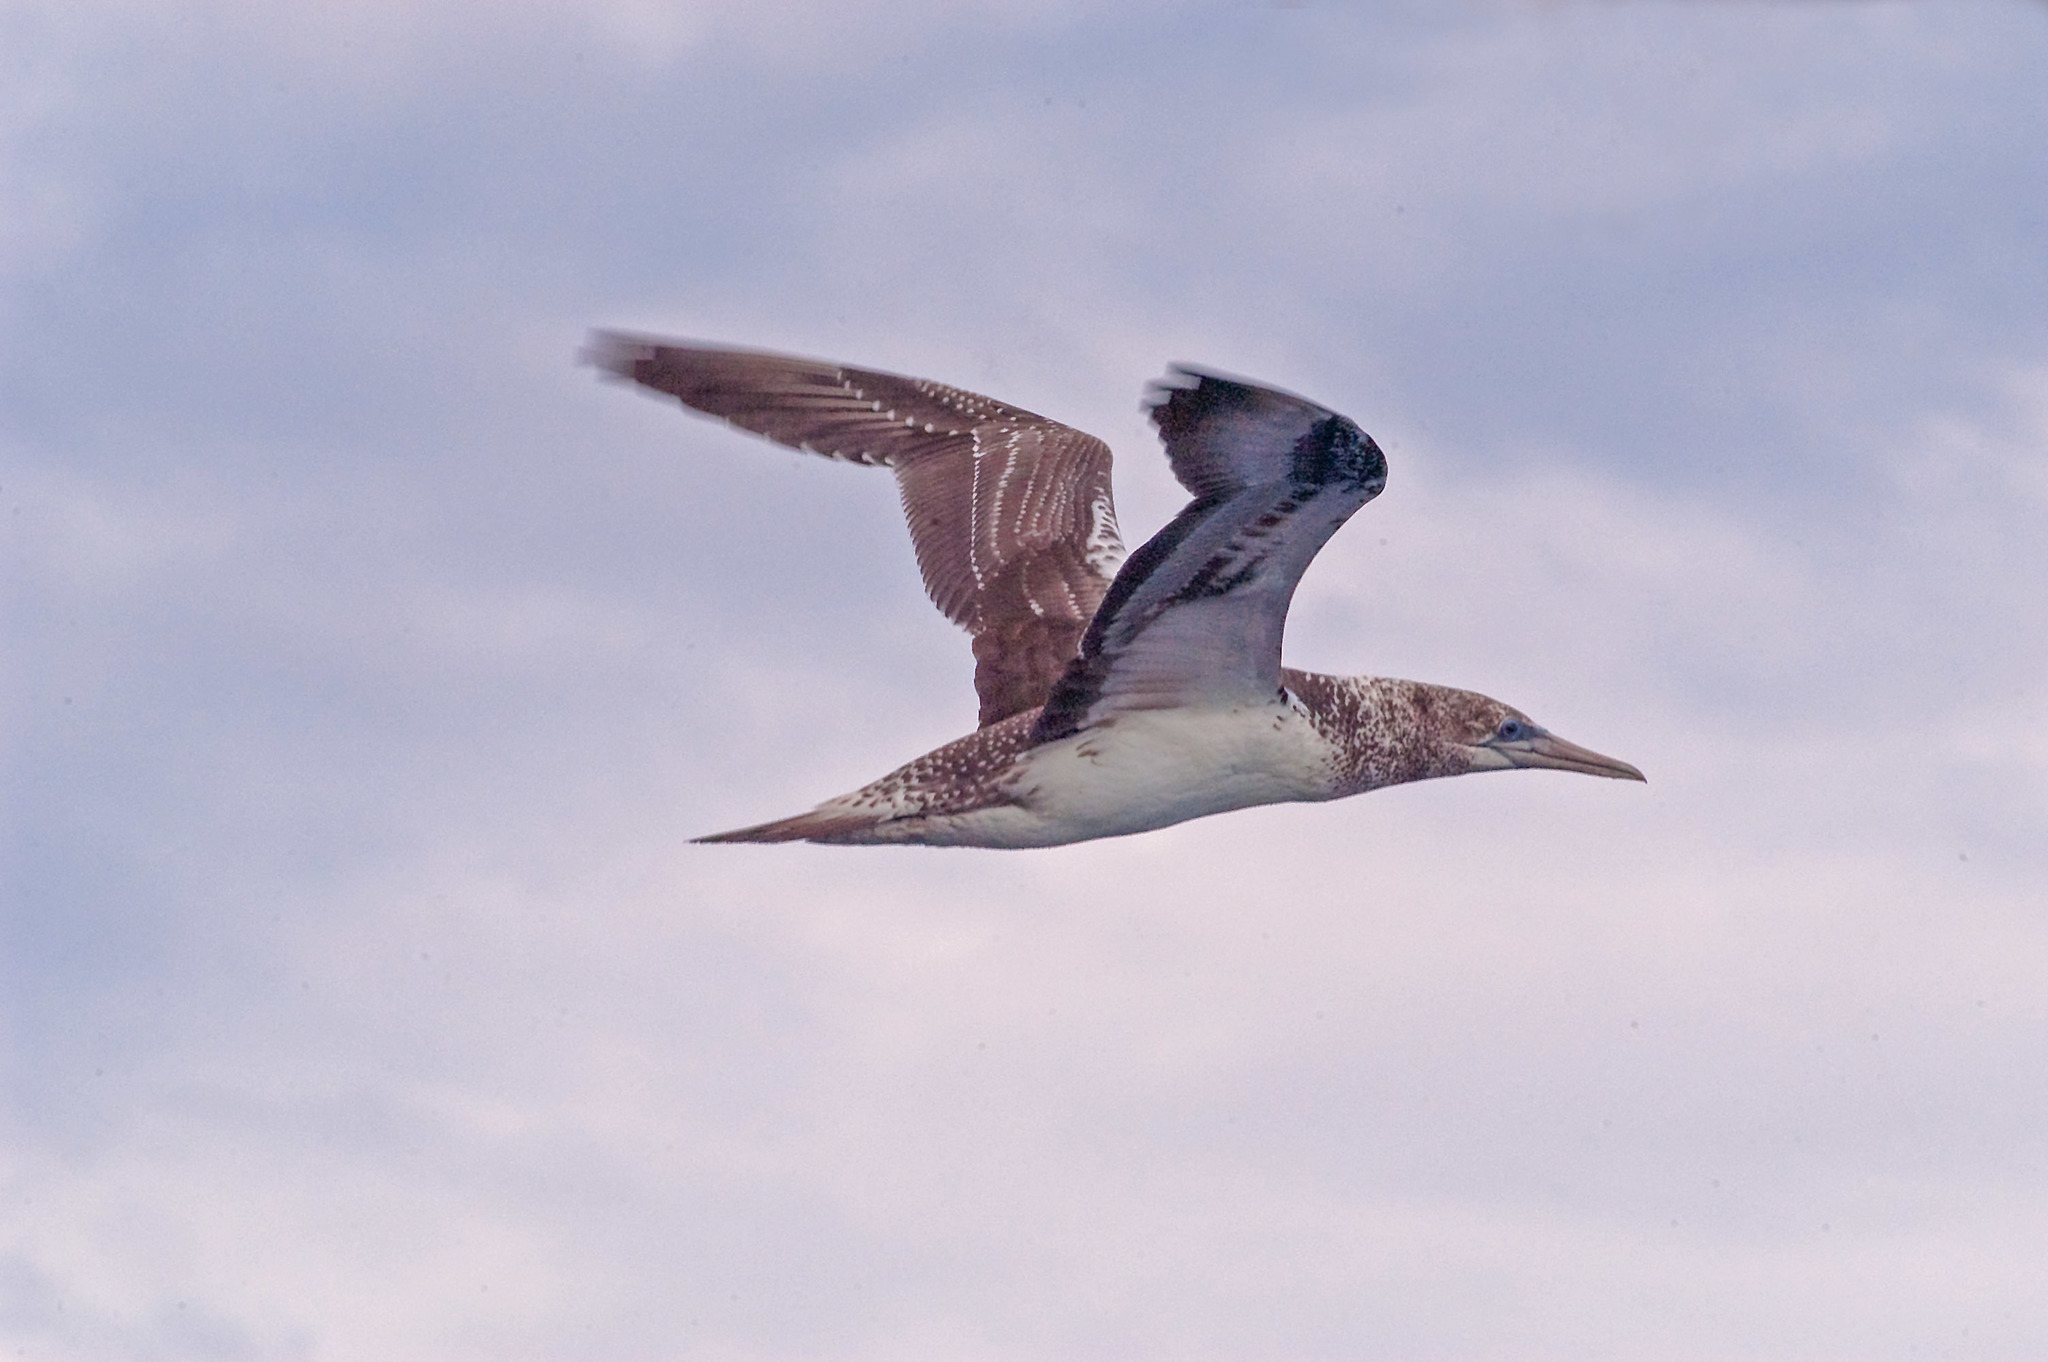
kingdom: Animalia
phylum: Chordata
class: Aves
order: Suliformes
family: Sulidae
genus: Morus
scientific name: Morus serrator
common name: Australasian gannet
